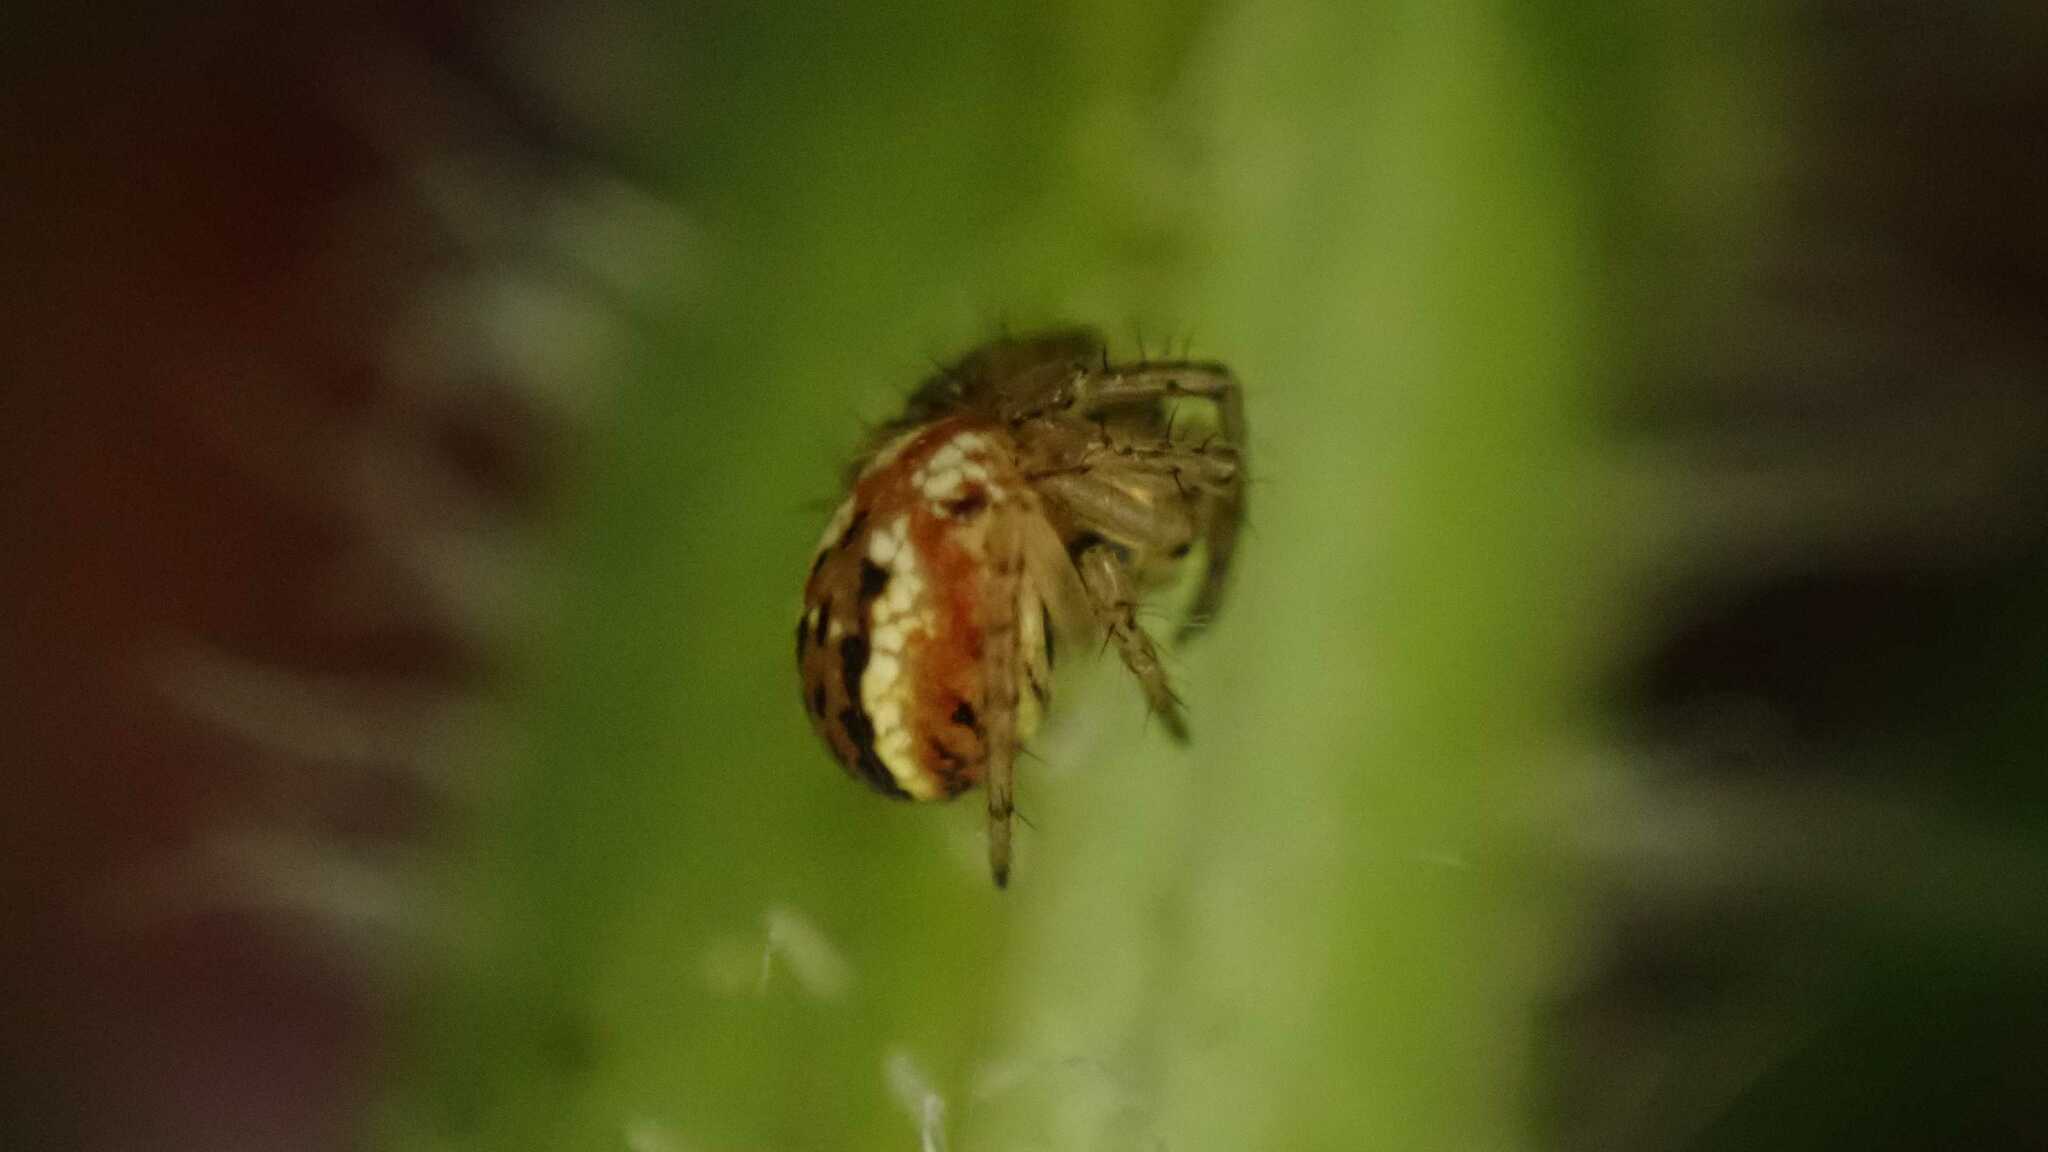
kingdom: Animalia
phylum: Arthropoda
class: Arachnida
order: Araneae
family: Araneidae
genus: Mangora
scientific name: Mangora acalypha
